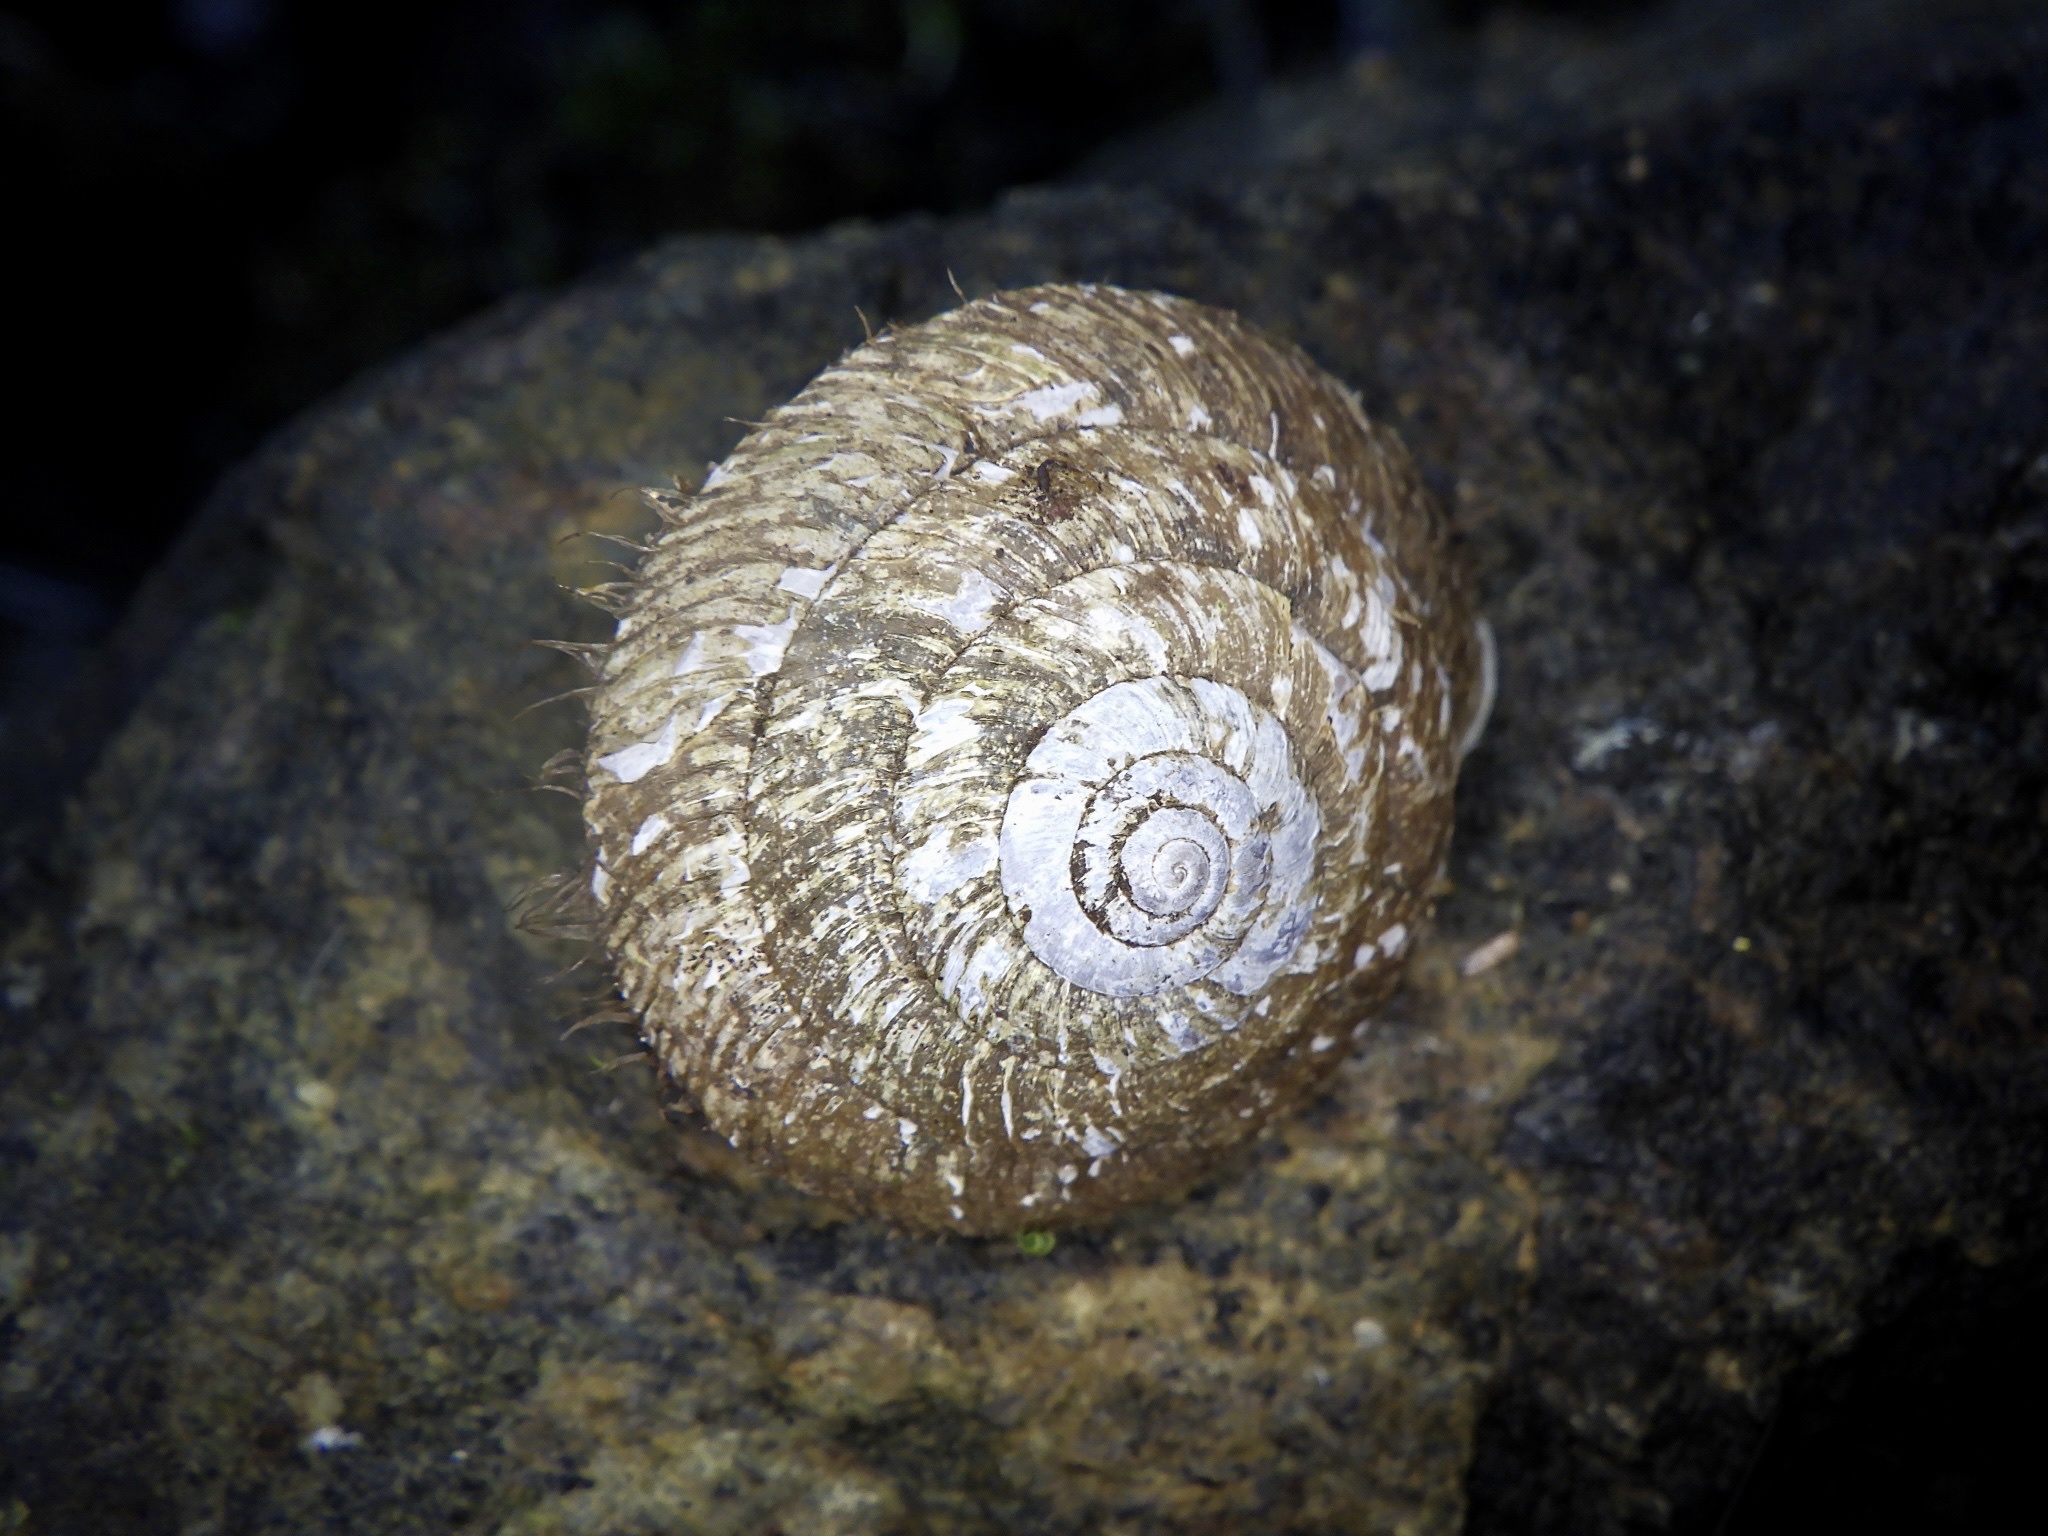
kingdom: Animalia
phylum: Mollusca
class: Gastropoda
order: Stylommatophora
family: Camaenidae
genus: Plectotropis
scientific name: Plectotropis vulgivaga
